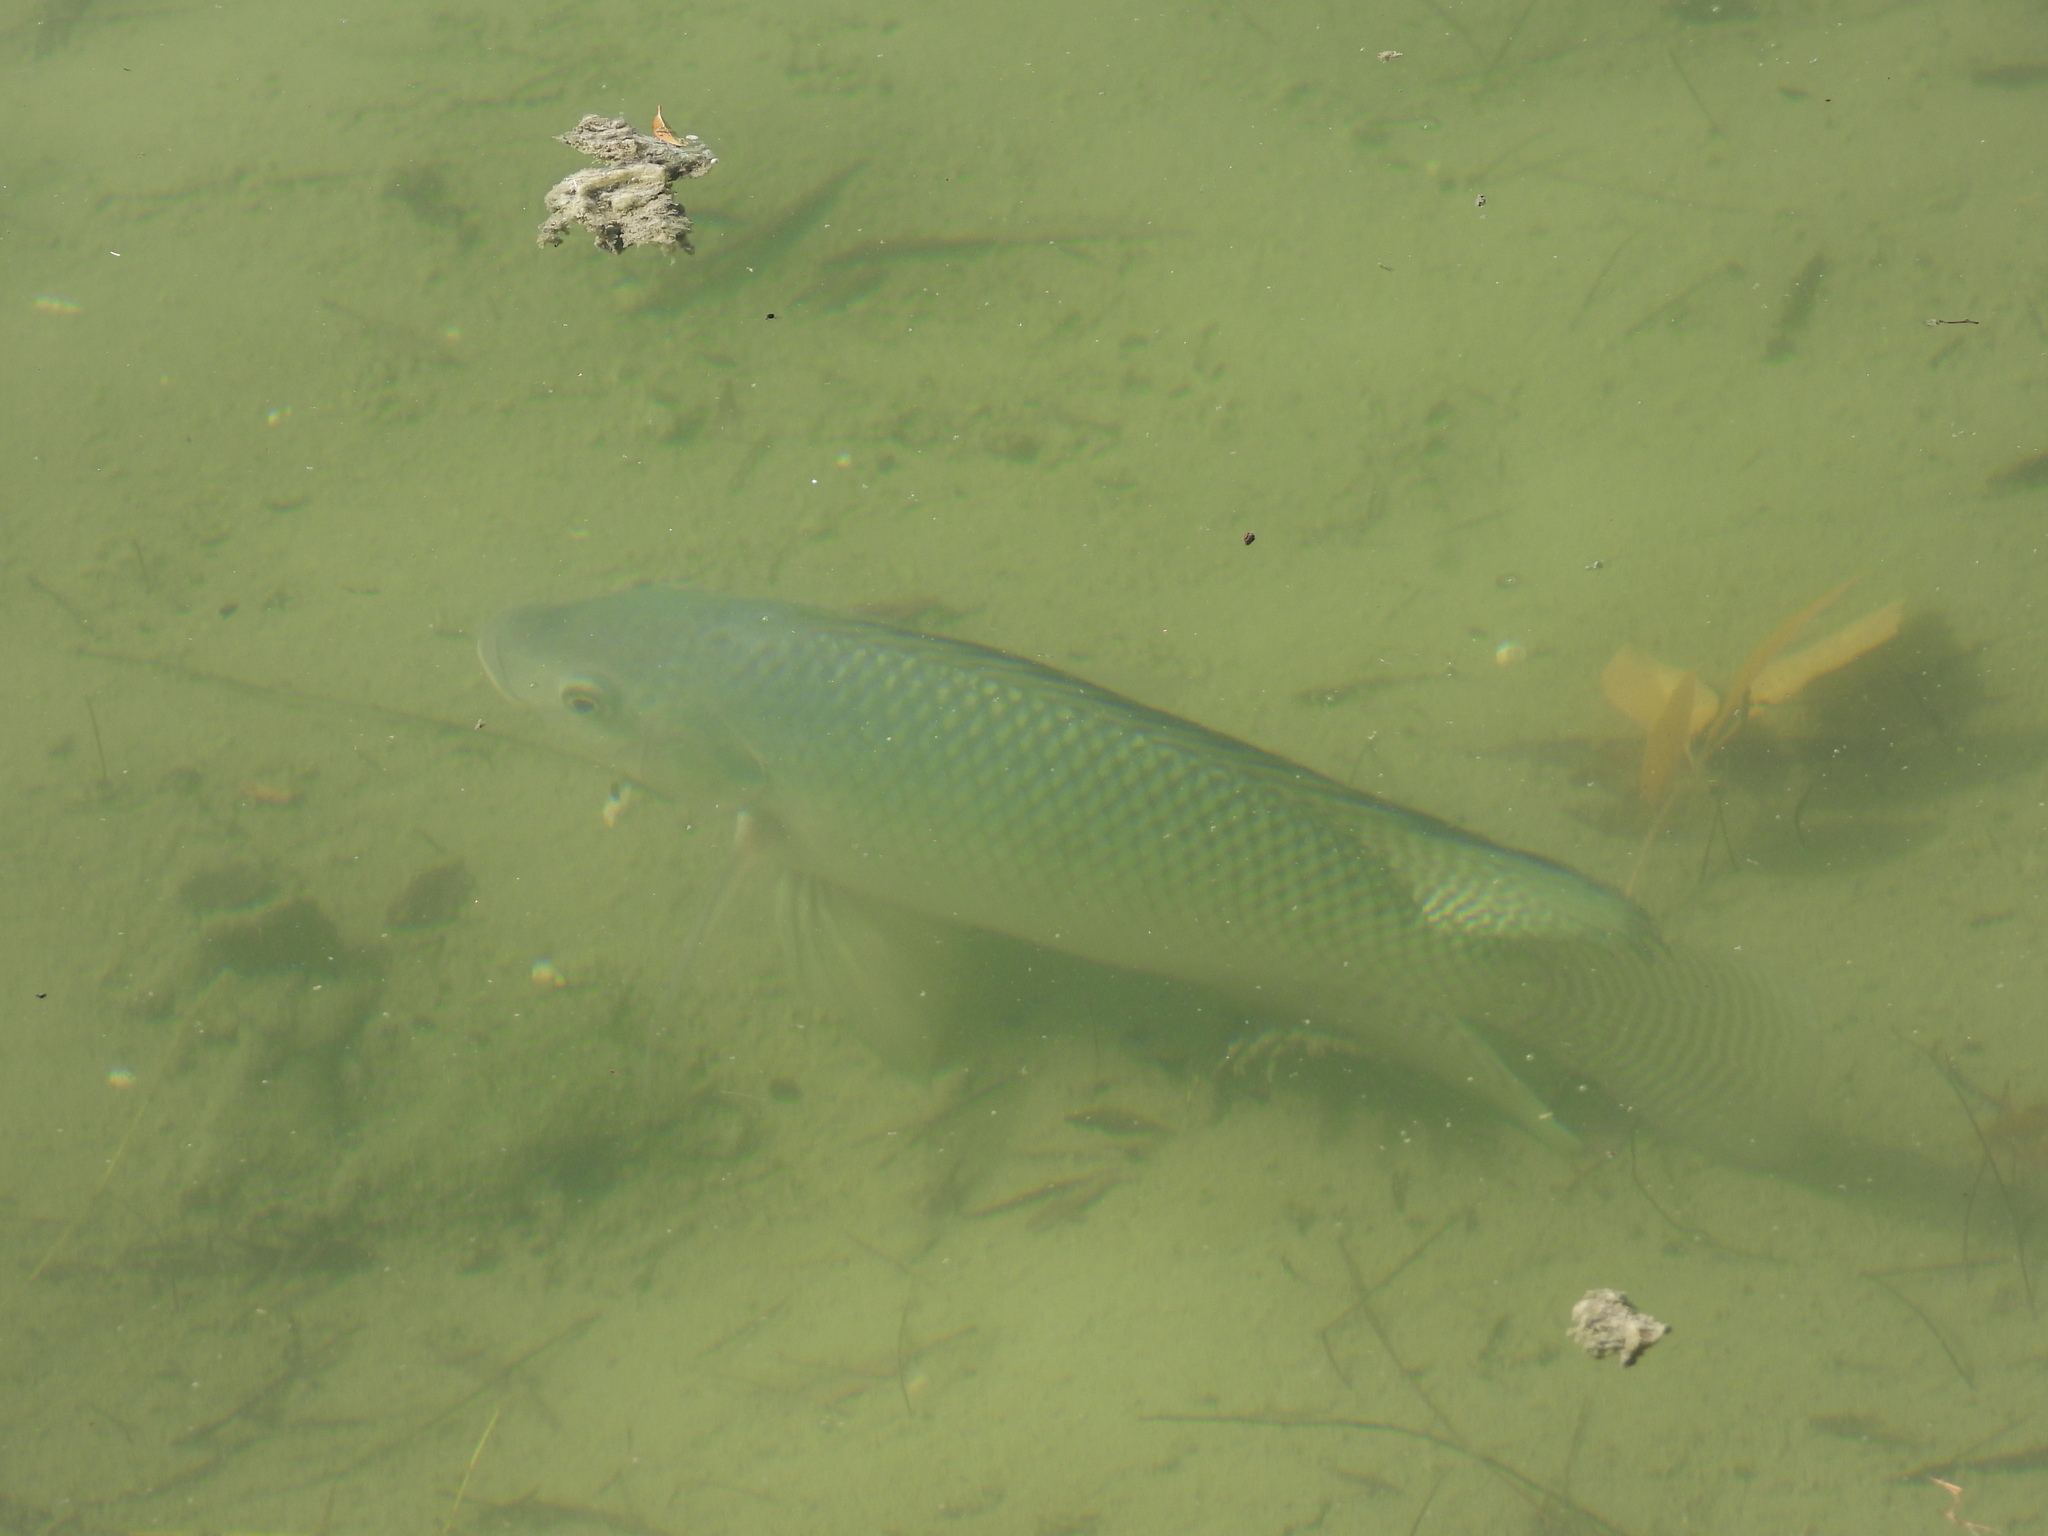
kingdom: Animalia
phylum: Chordata
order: Perciformes
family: Cichlidae
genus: Oreochromis
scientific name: Oreochromis niloticus
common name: Nile tilapia
